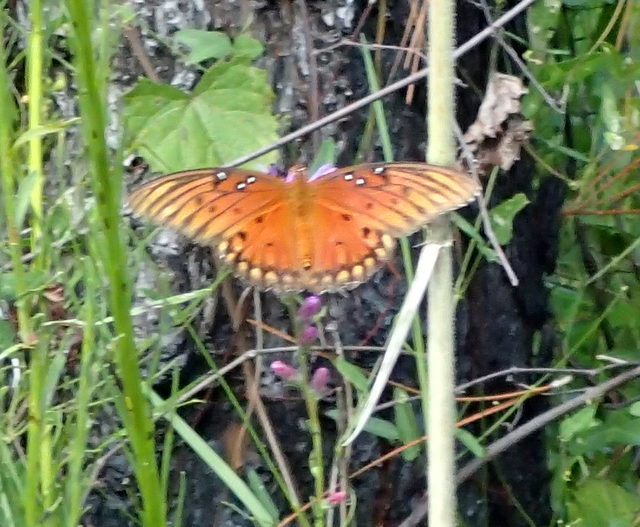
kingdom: Animalia
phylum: Arthropoda
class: Insecta
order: Lepidoptera
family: Nymphalidae
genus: Dione
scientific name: Dione vanillae
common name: Gulf fritillary
